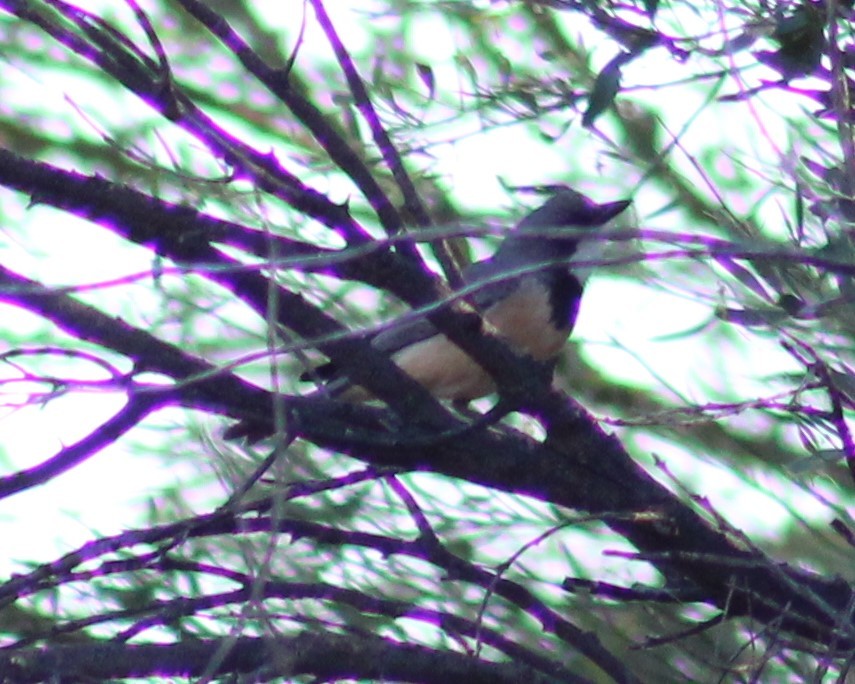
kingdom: Animalia
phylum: Chordata
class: Aves
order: Passeriformes
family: Pachycephalidae
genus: Pachycephala
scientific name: Pachycephala rufiventris
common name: Rufous whistler
